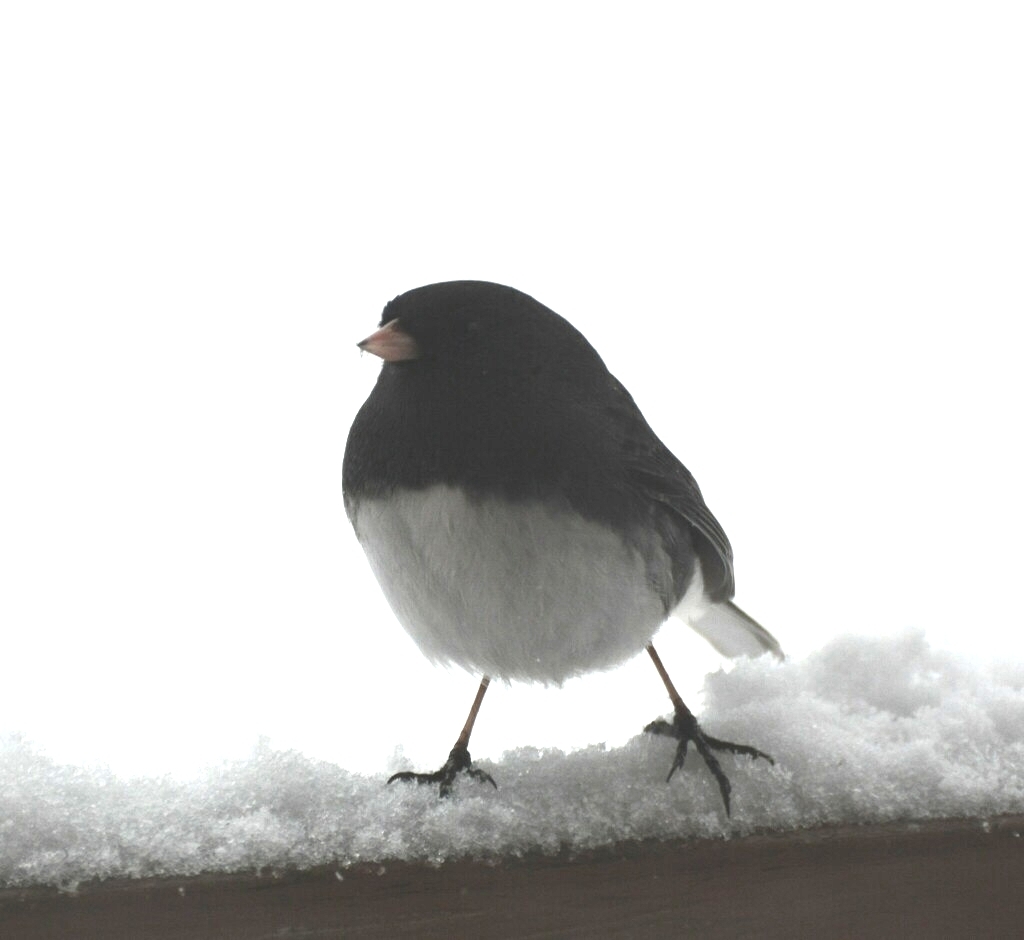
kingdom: Animalia
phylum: Chordata
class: Aves
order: Passeriformes
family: Passerellidae
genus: Junco
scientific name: Junco hyemalis
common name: Dark-eyed junco
